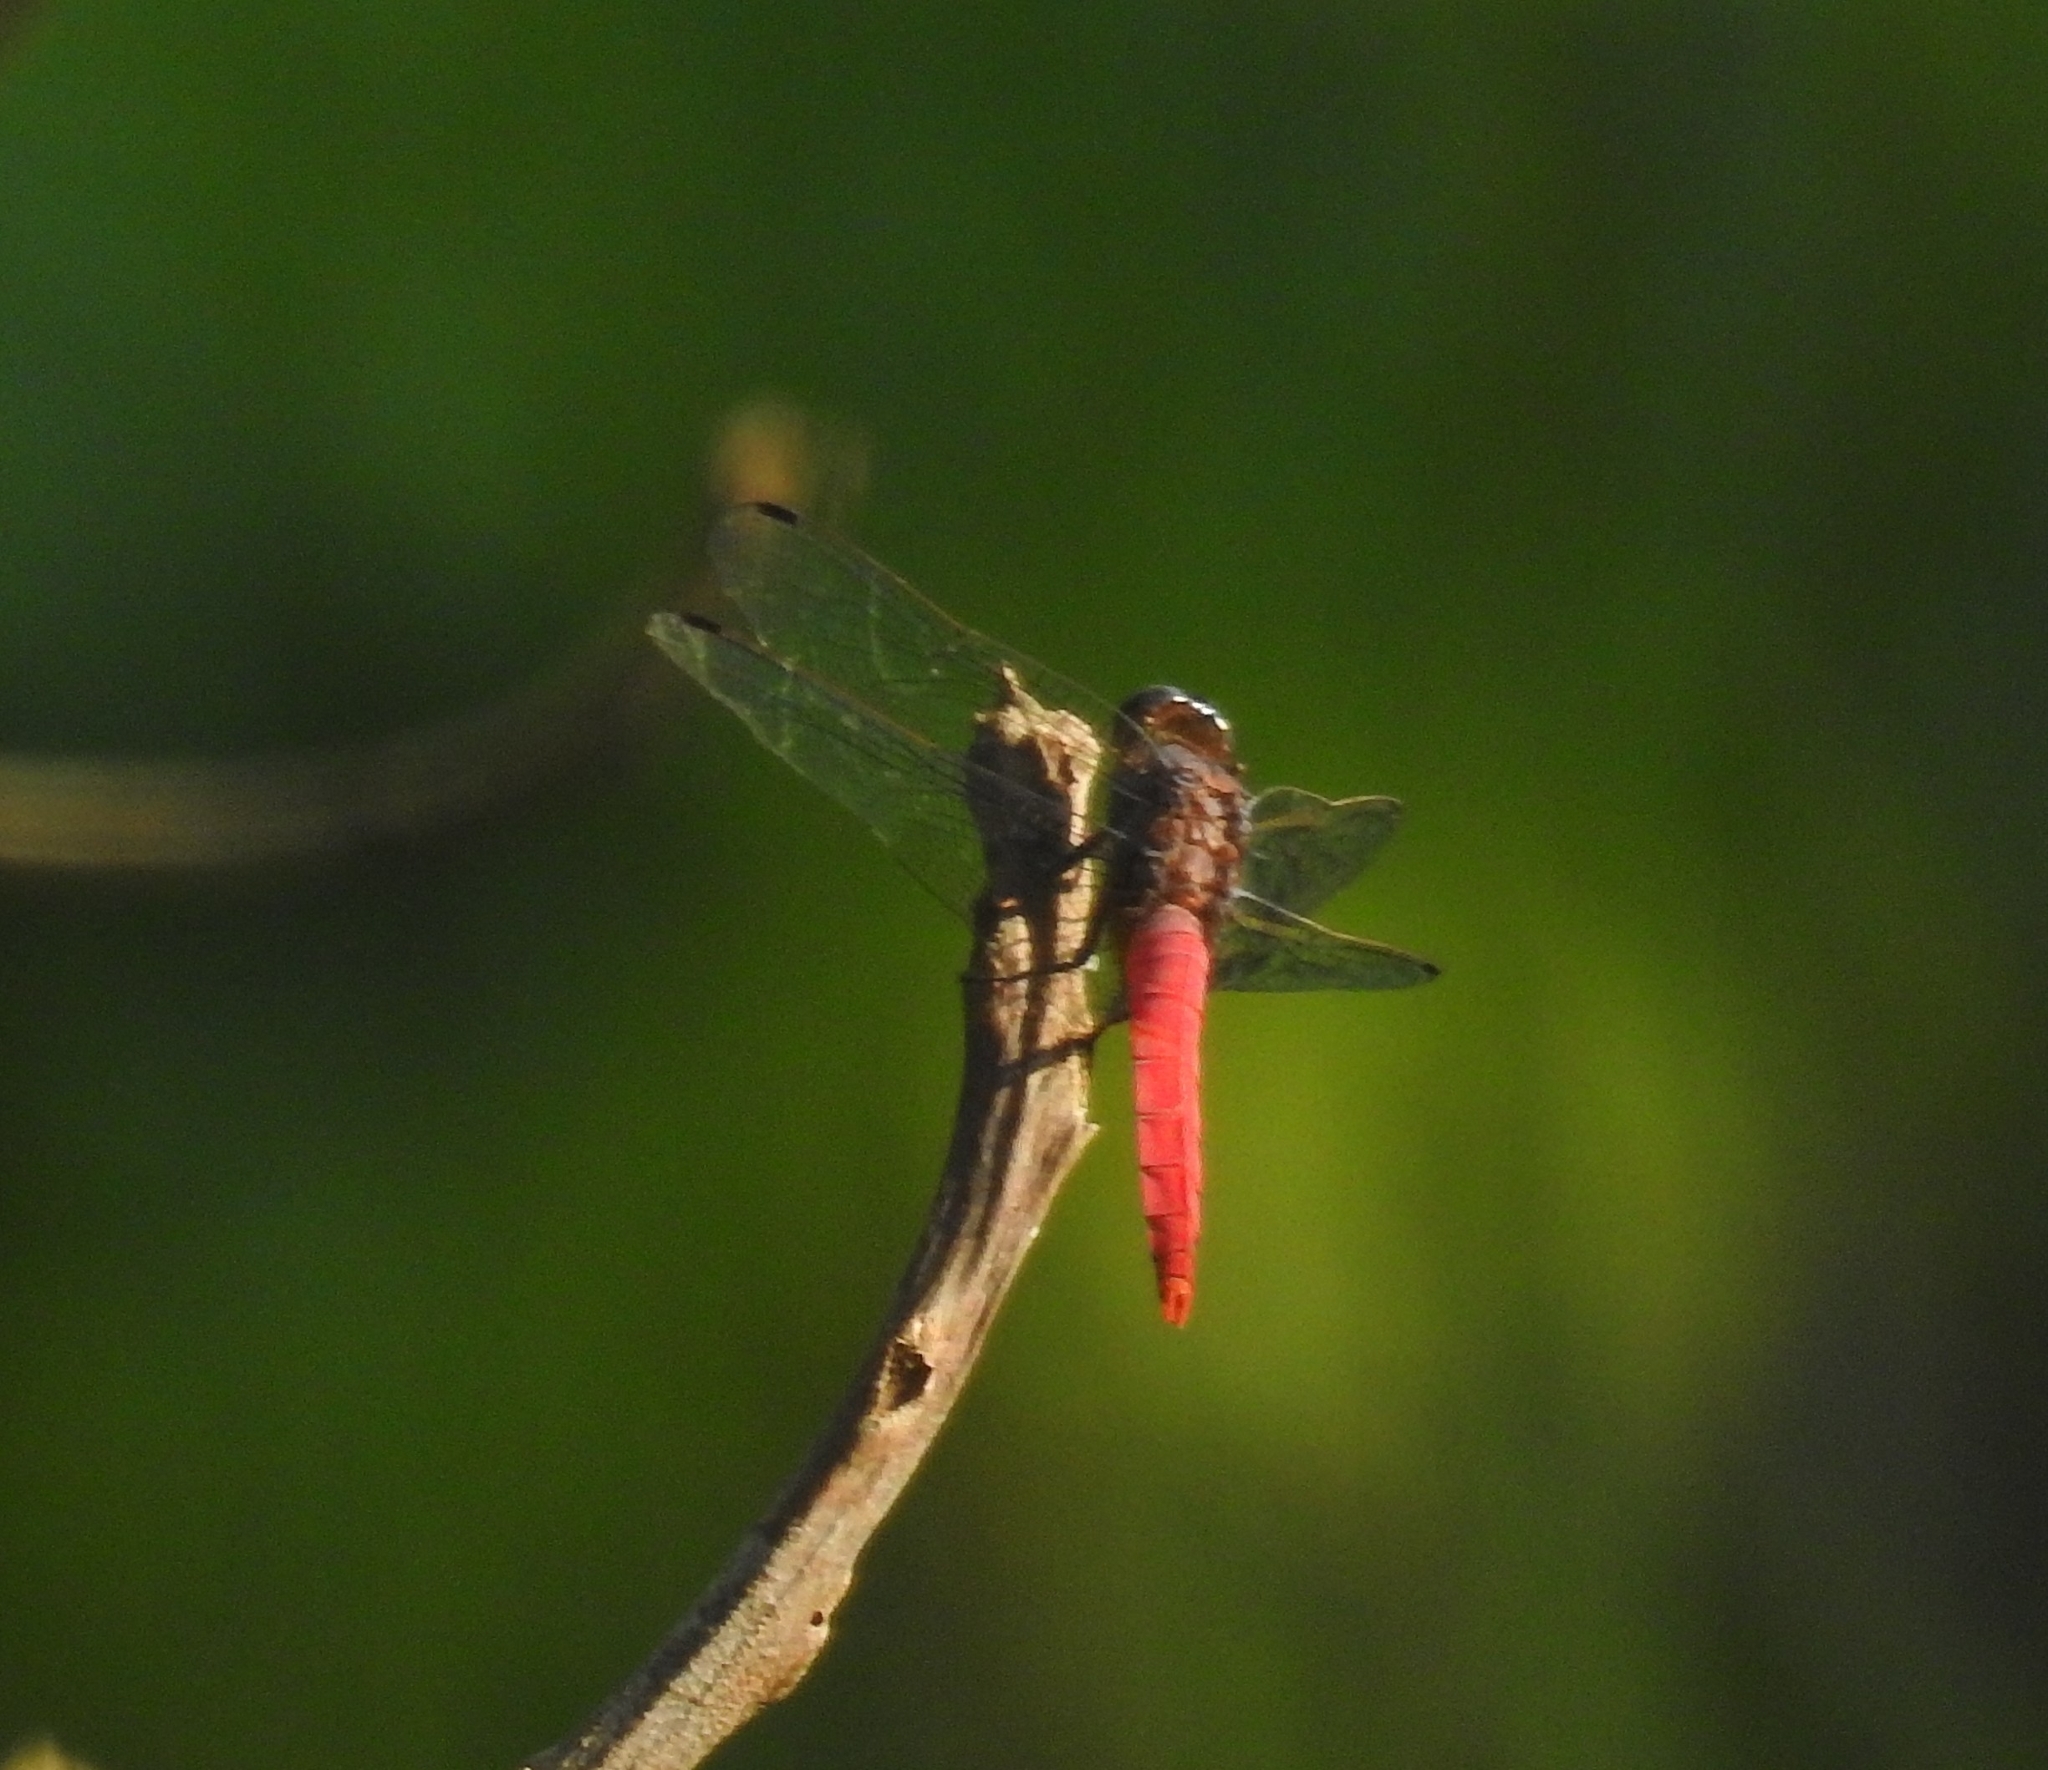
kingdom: Animalia
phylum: Arthropoda
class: Insecta
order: Odonata
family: Libellulidae
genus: Orthetrum
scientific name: Orthetrum chrysis
